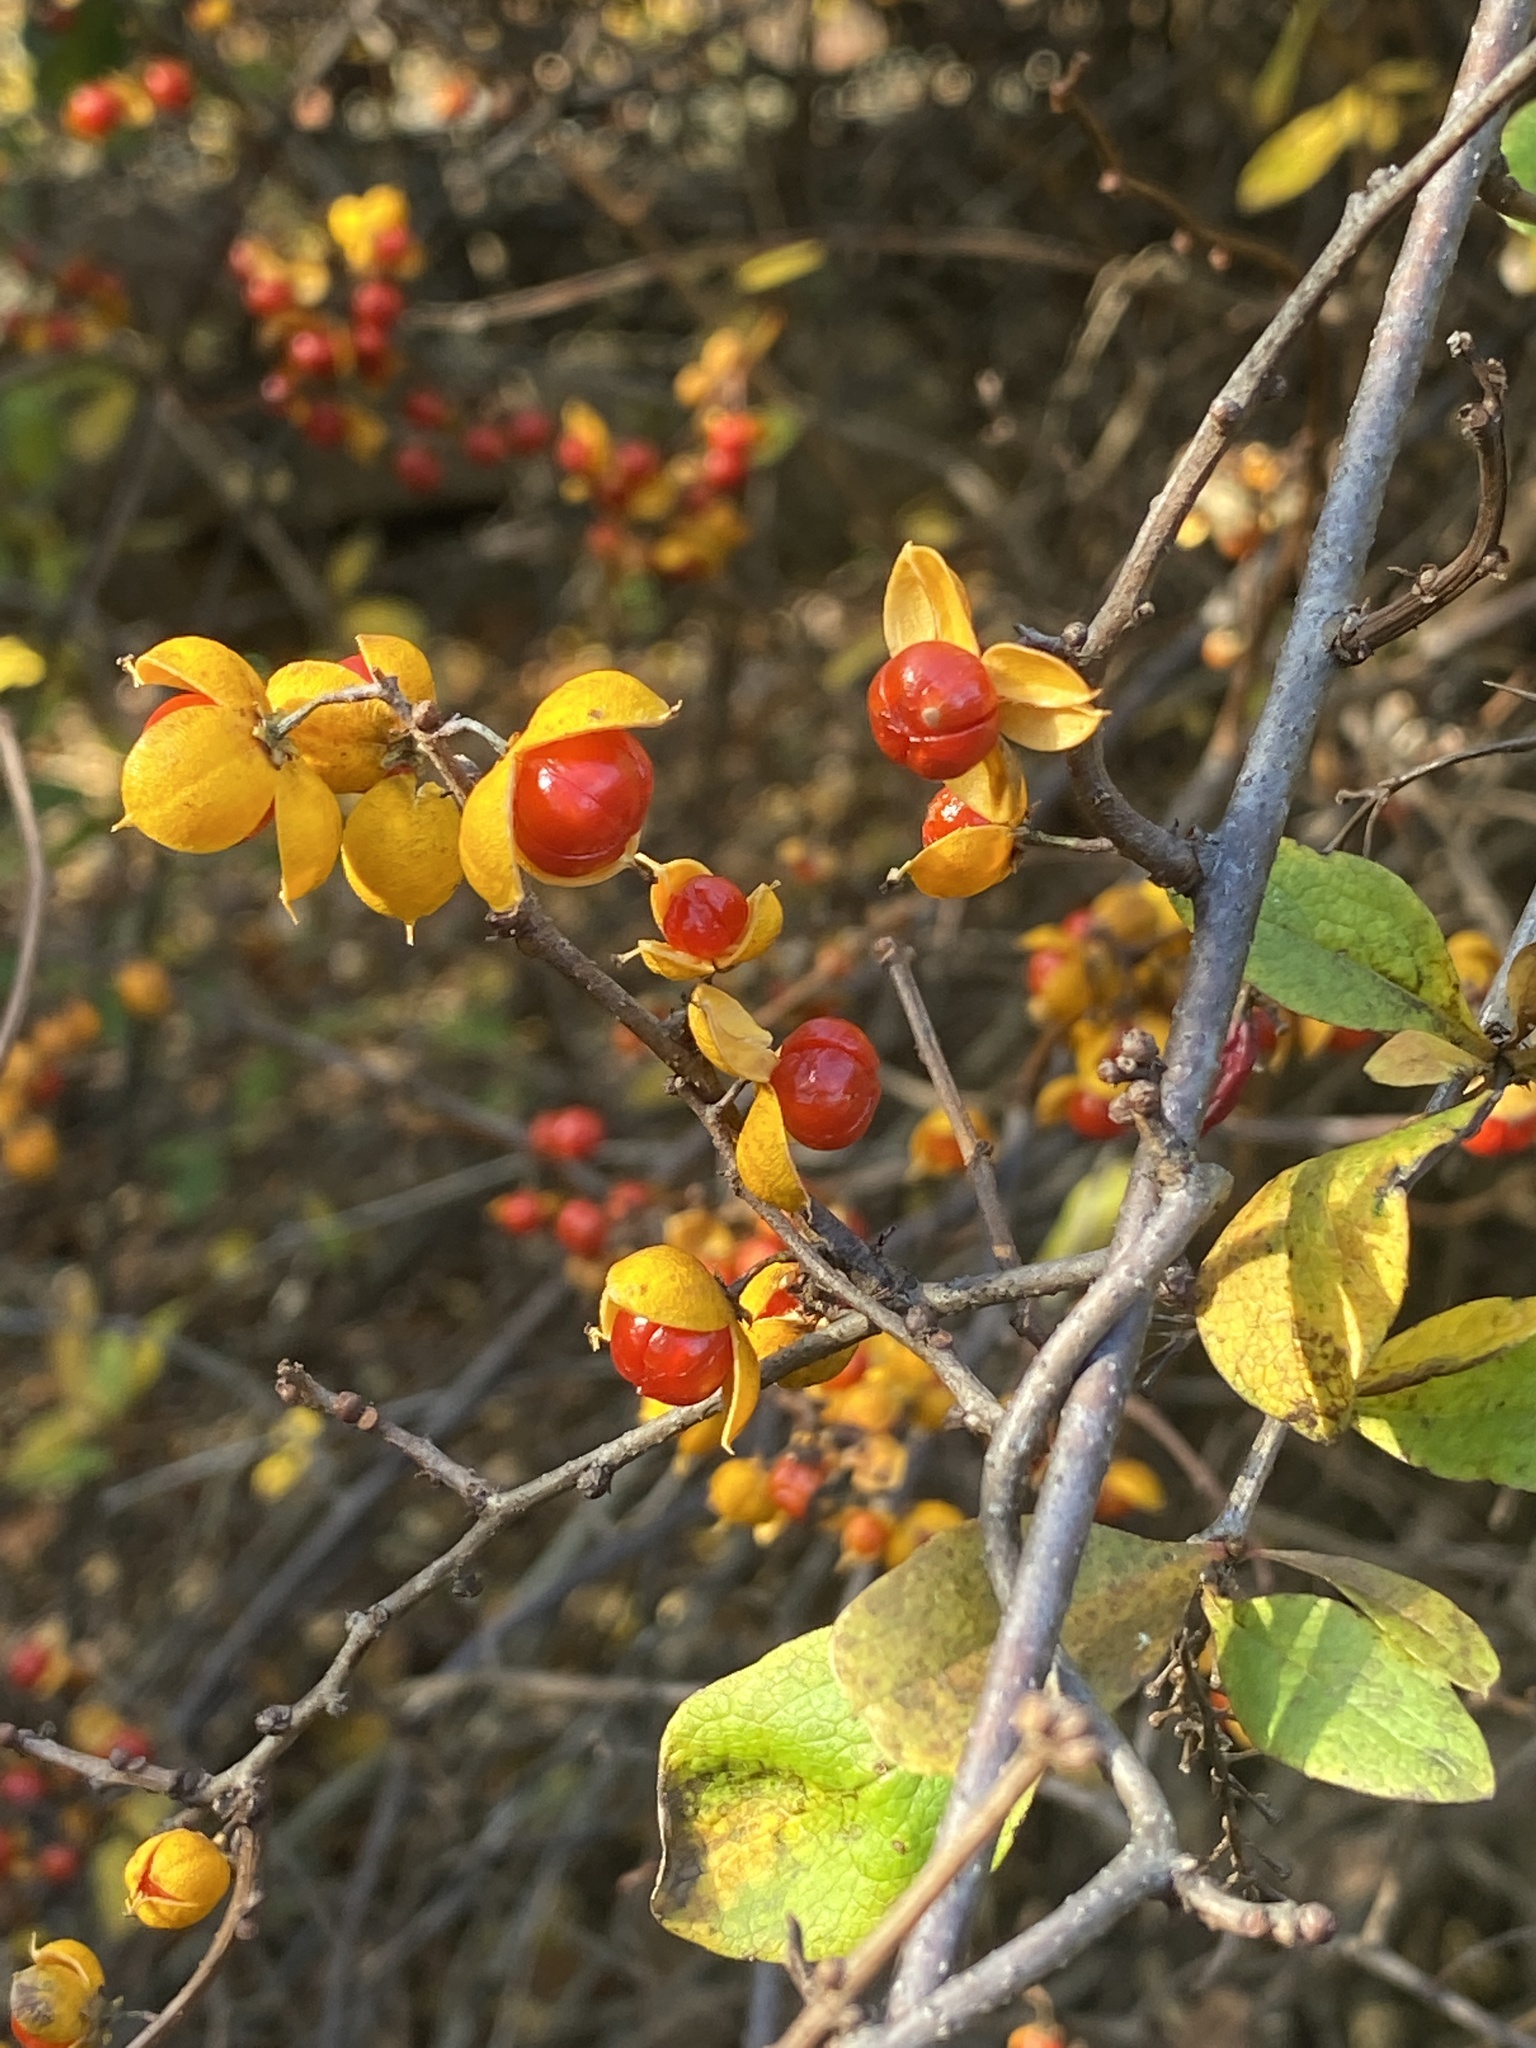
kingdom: Plantae
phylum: Tracheophyta
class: Magnoliopsida
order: Celastrales
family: Celastraceae
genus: Celastrus
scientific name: Celastrus orbiculatus
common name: Oriental bittersweet
